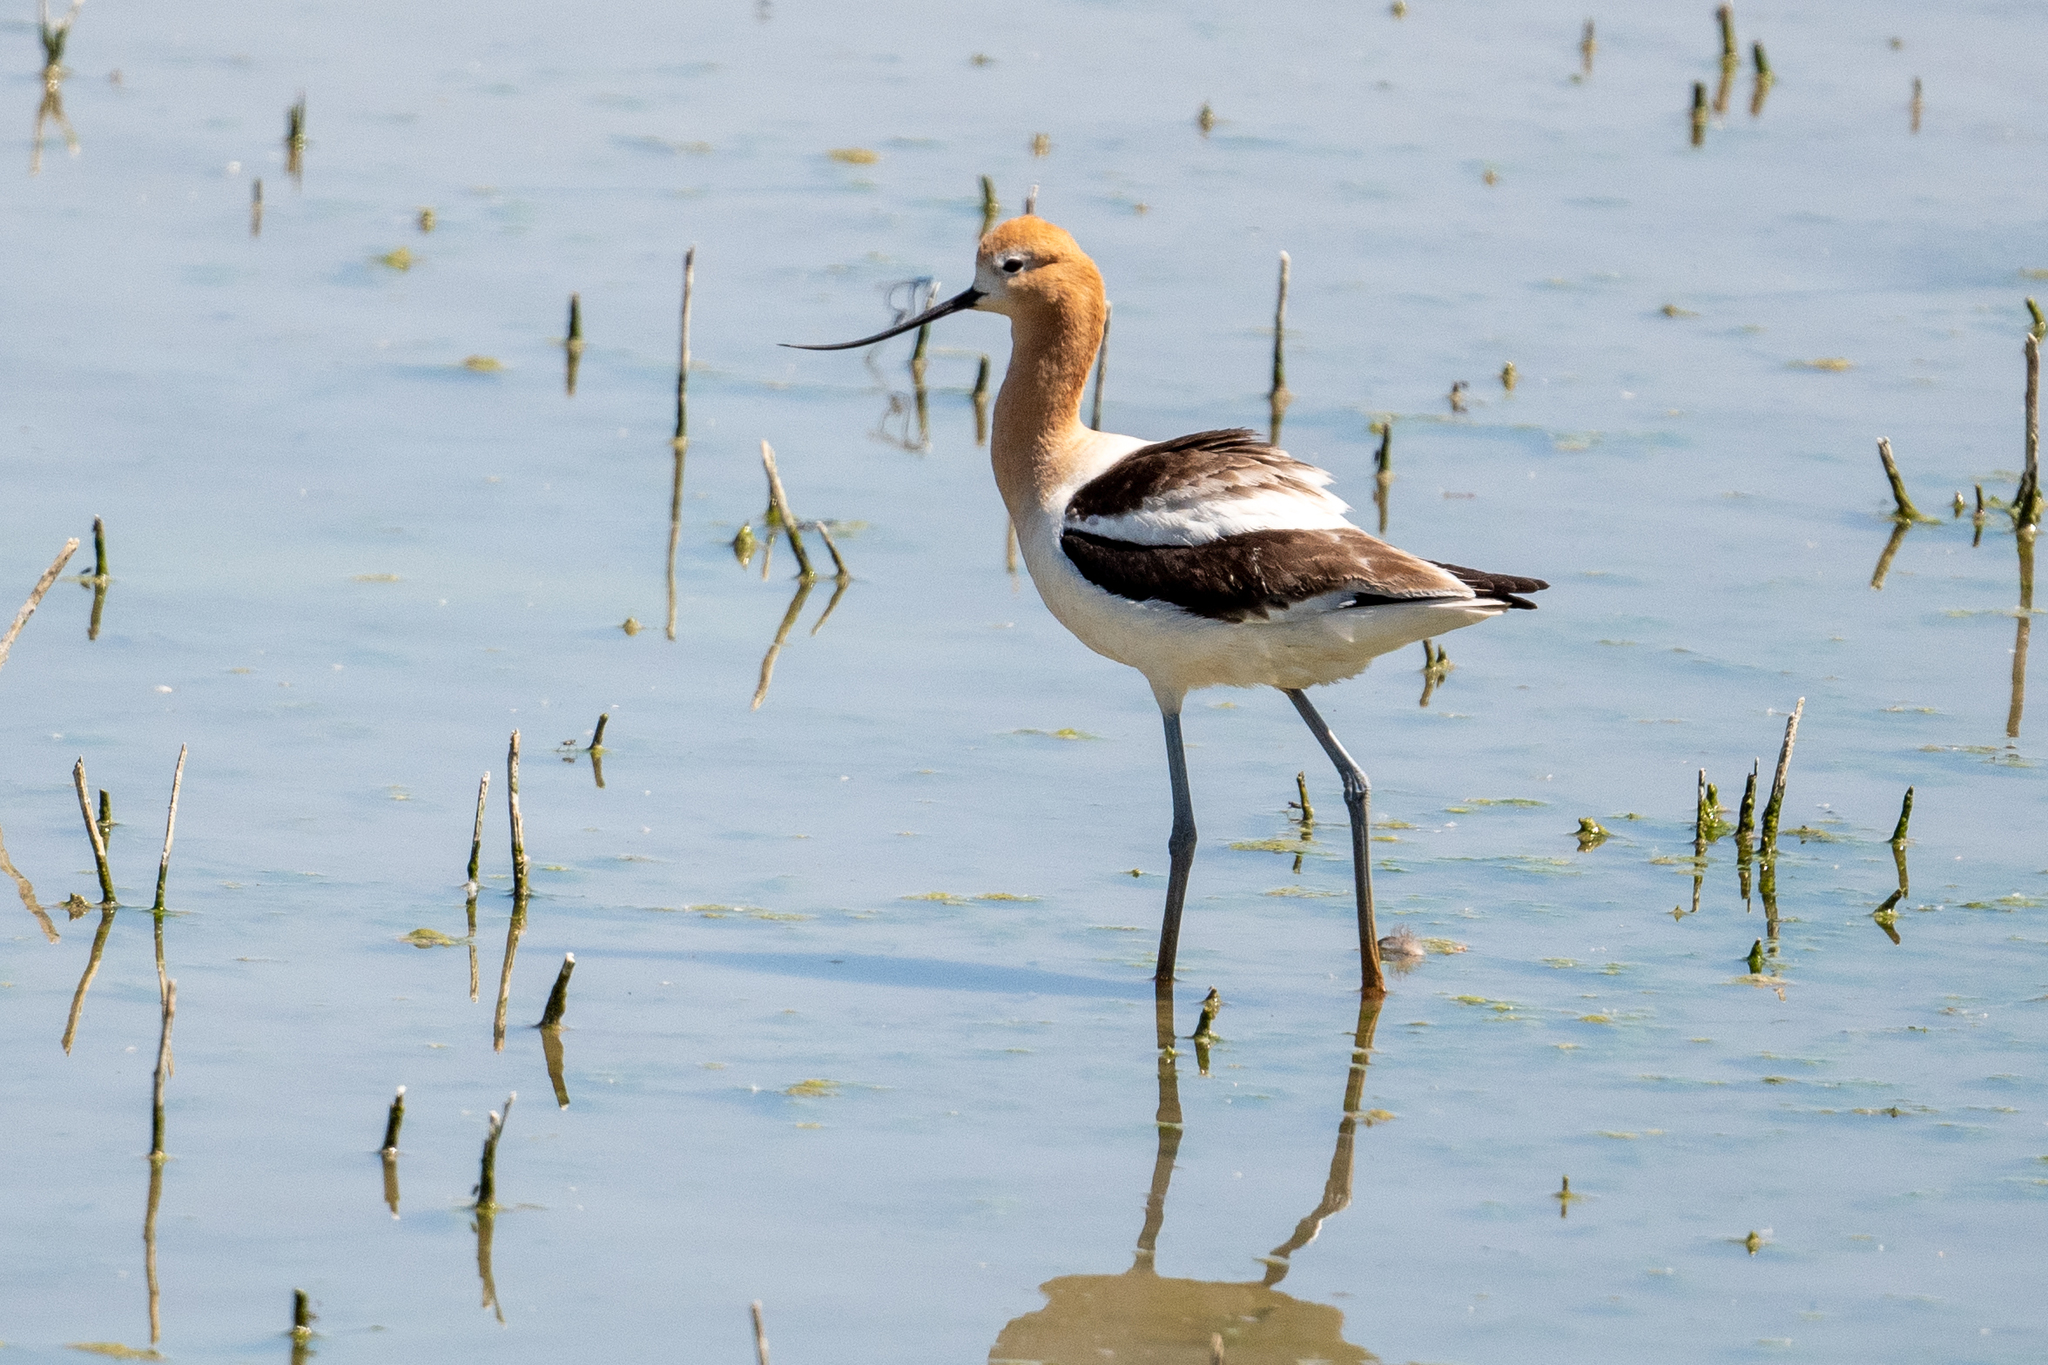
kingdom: Animalia
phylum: Chordata
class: Aves
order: Charadriiformes
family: Recurvirostridae
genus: Recurvirostra
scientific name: Recurvirostra americana
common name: American avocet
